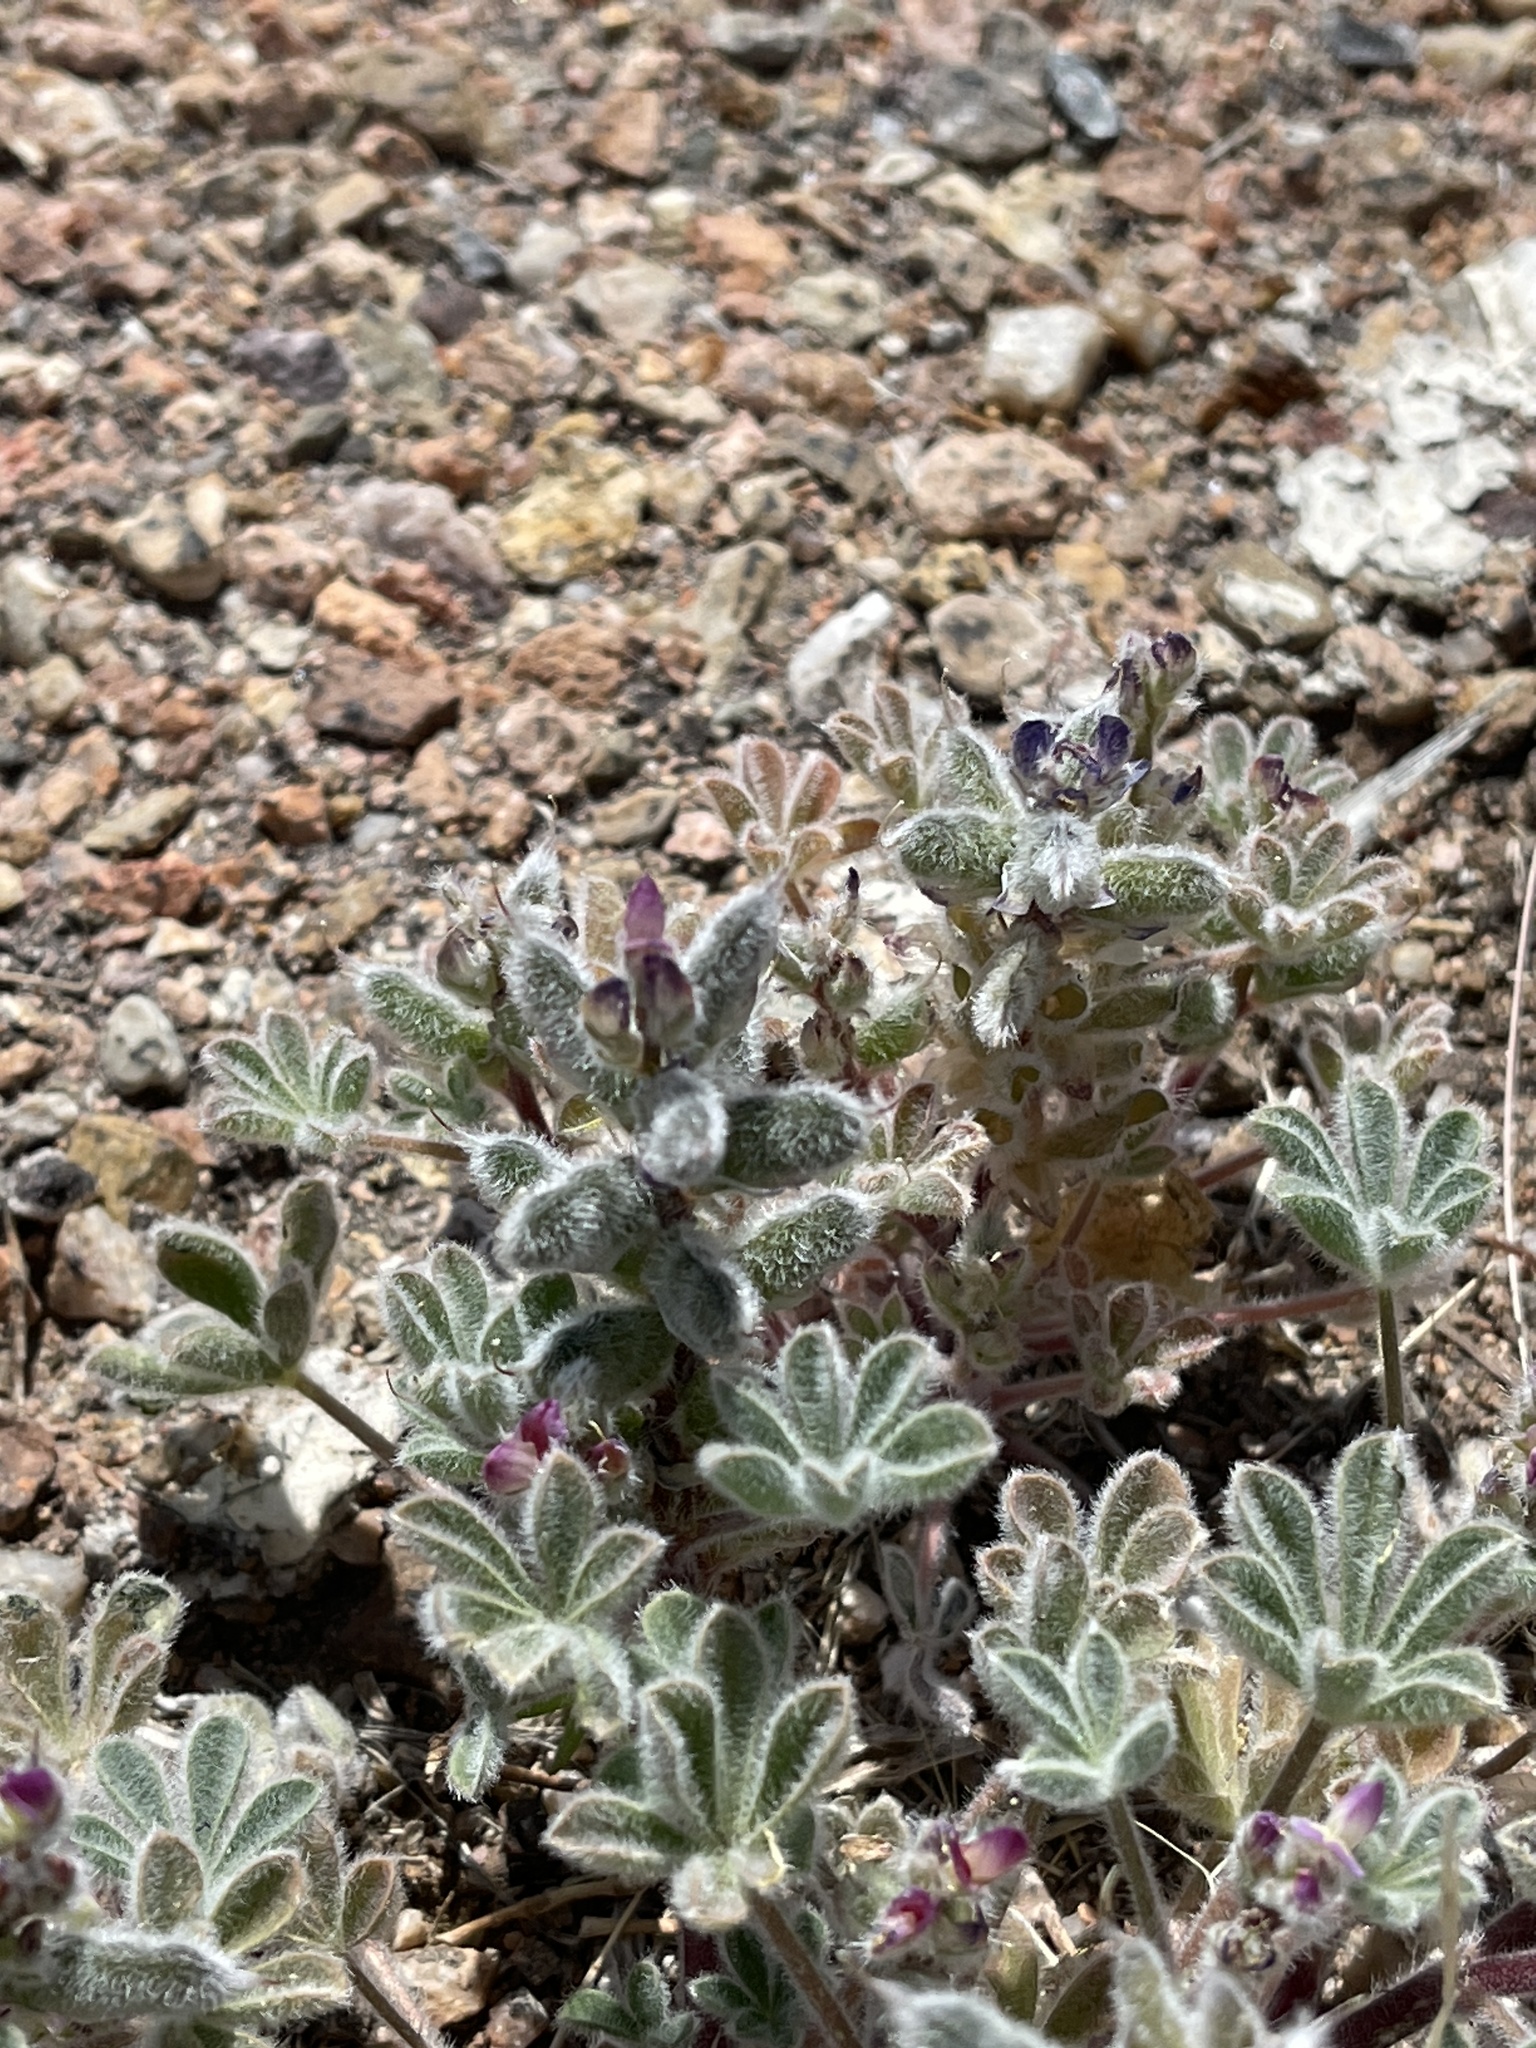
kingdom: Plantae
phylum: Tracheophyta
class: Magnoliopsida
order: Fabales
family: Fabaceae
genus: Lupinus
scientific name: Lupinus concinnus
